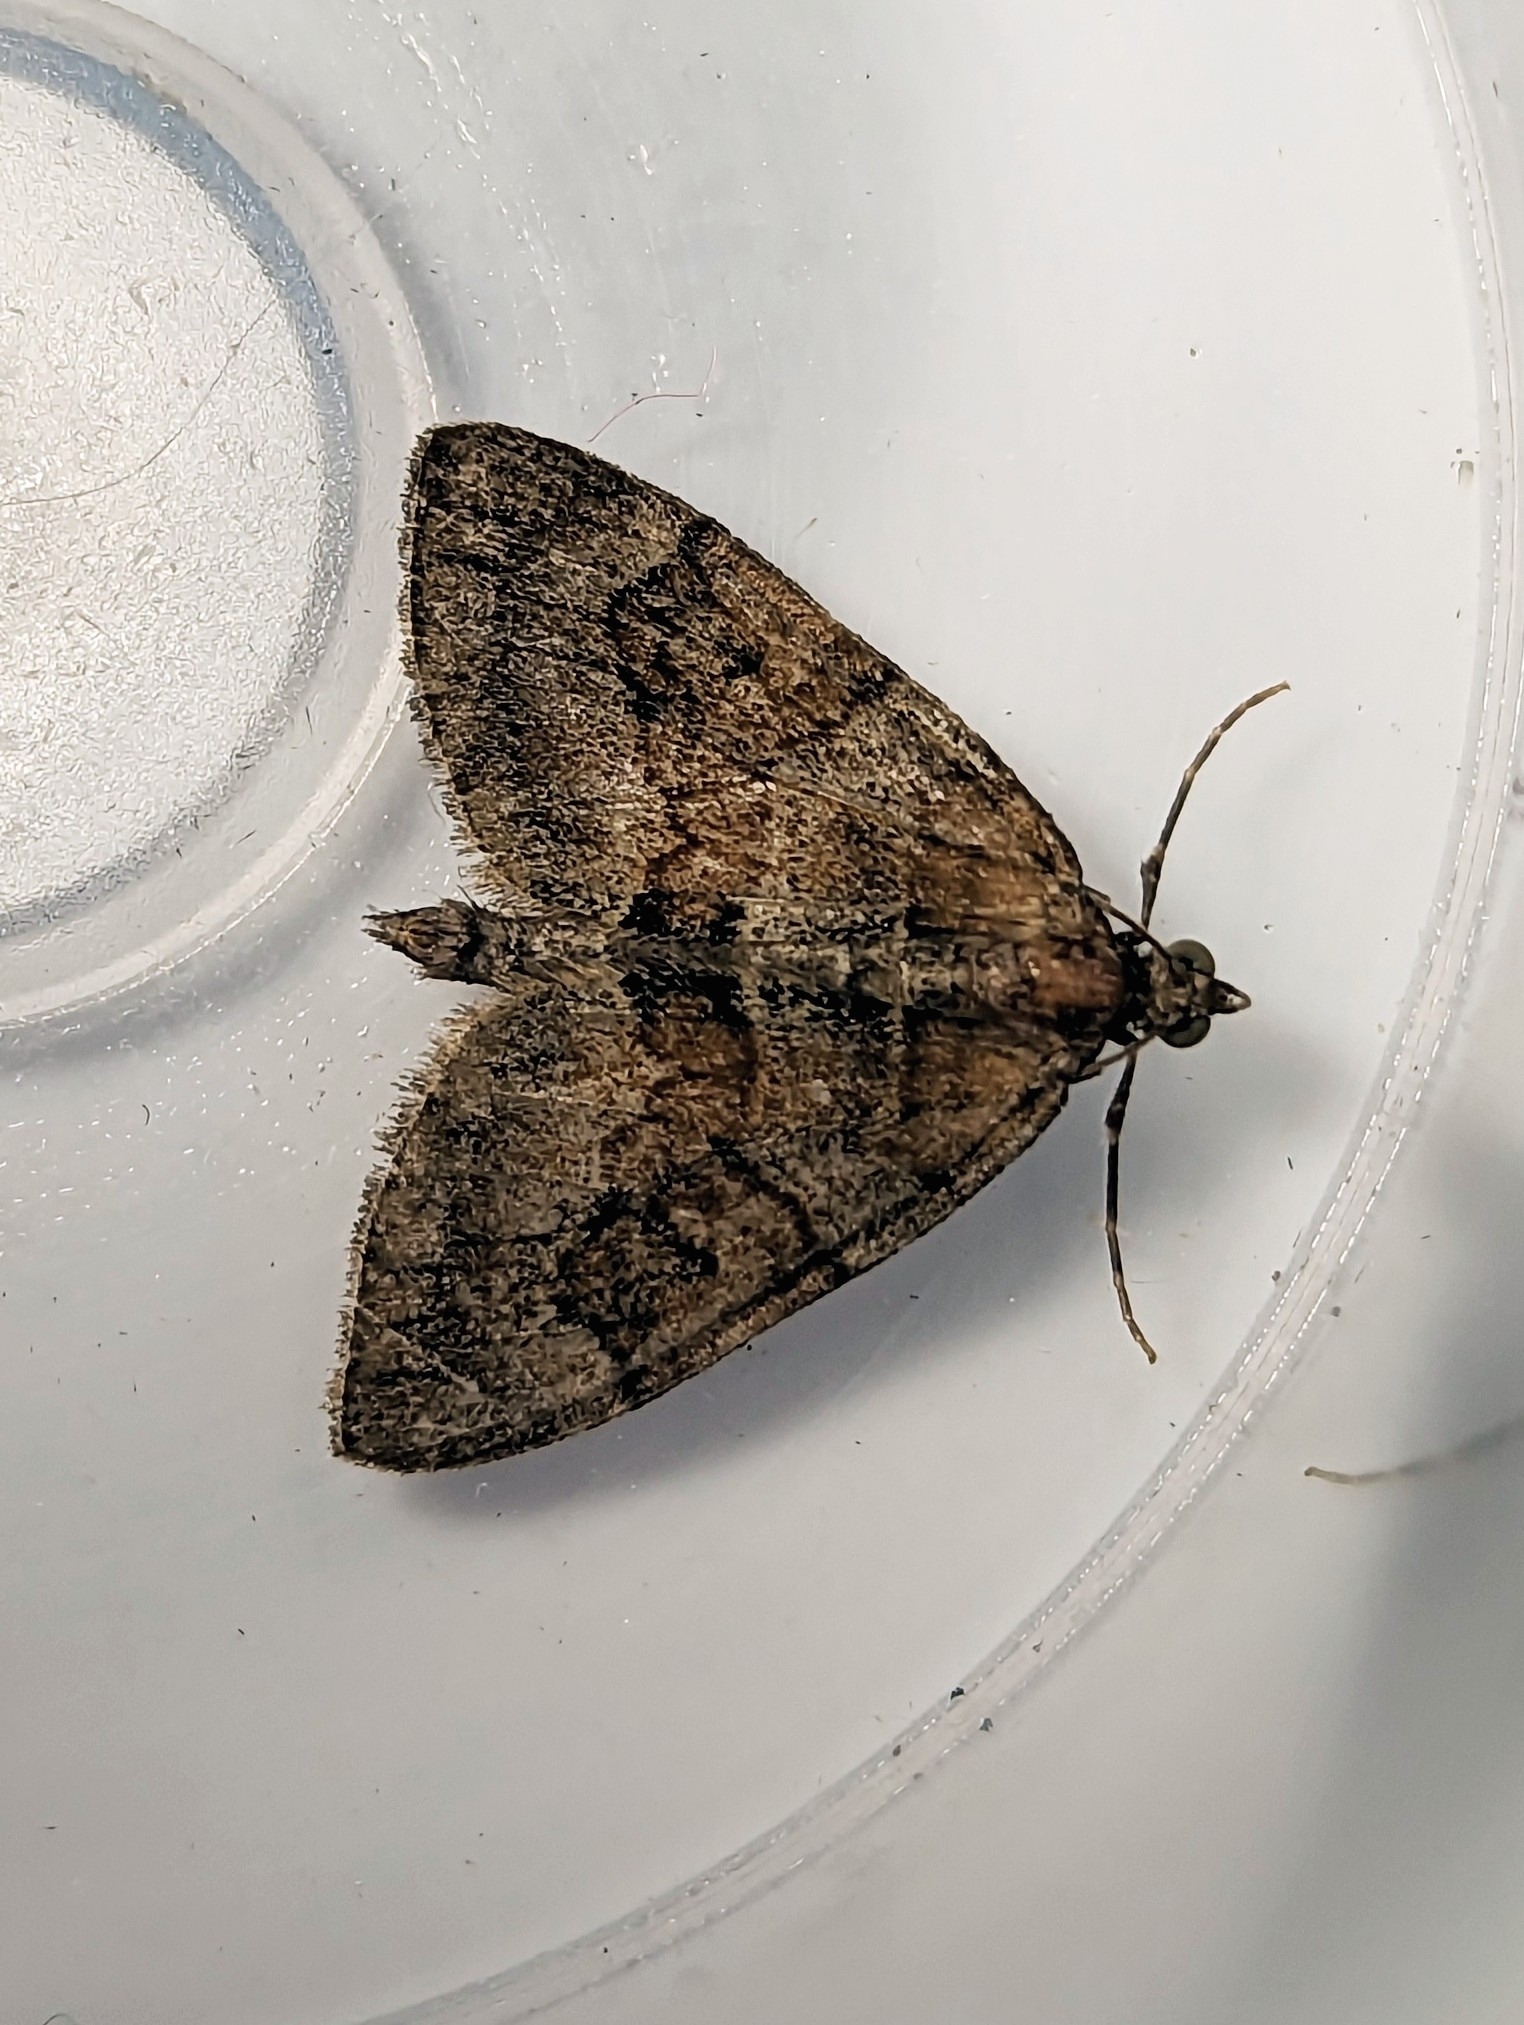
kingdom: Animalia
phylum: Arthropoda
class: Insecta
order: Lepidoptera
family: Geometridae
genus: Thera
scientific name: Thera obeliscata
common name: Grey pine carpet
